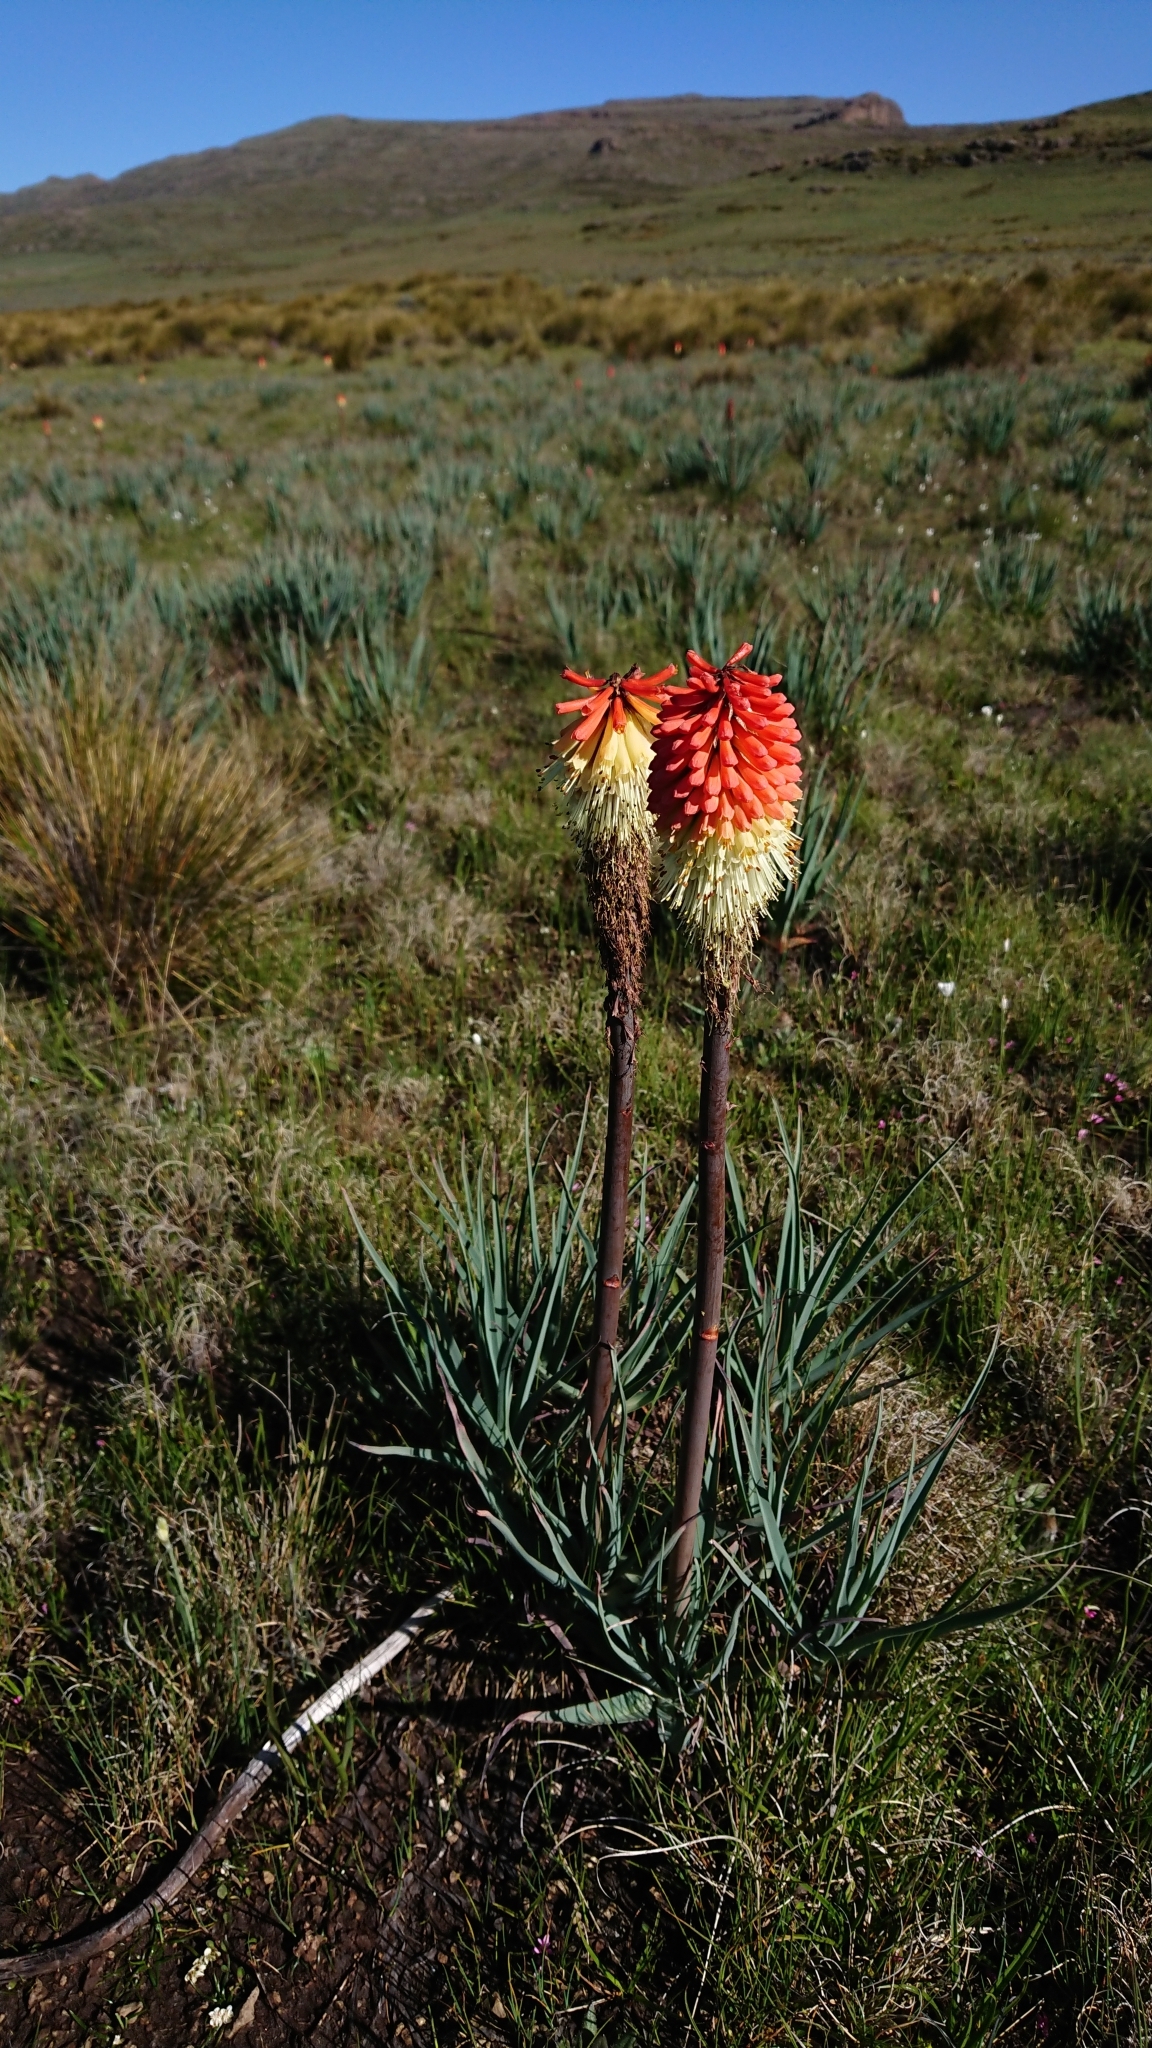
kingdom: Plantae
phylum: Tracheophyta
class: Liliopsida
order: Asparagales
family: Asphodelaceae
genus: Kniphofia
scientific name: Kniphofia caulescens
